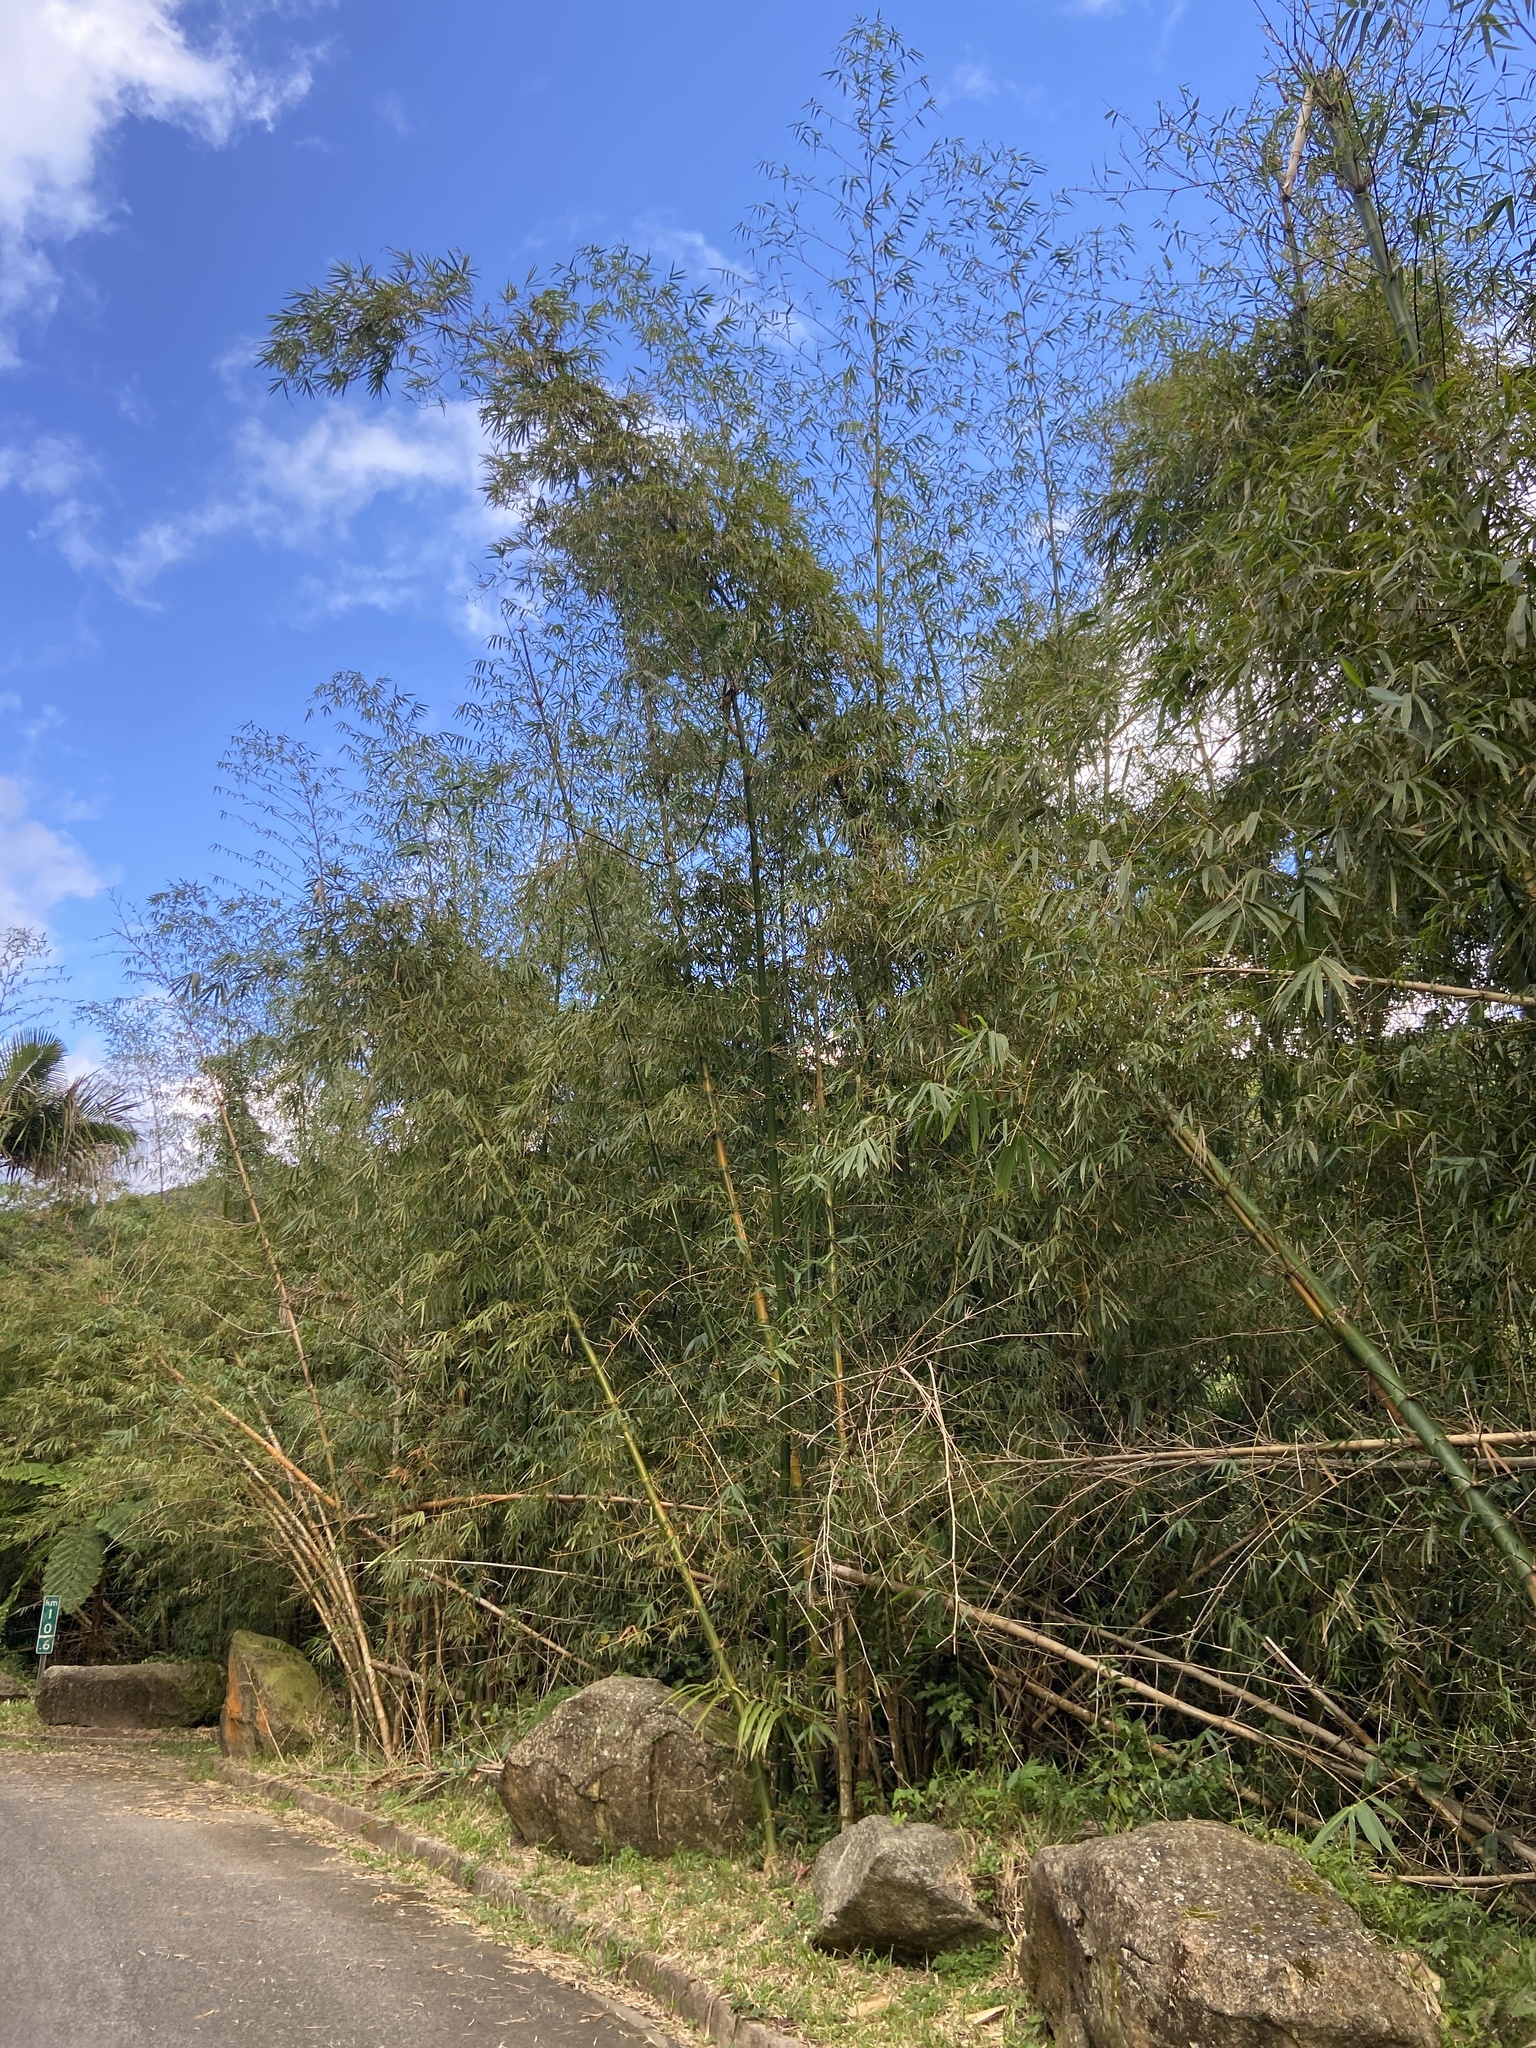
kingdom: Plantae
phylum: Tracheophyta
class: Liliopsida
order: Poales
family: Poaceae
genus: Bambusa
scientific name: Bambusa vulgaris
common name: Common bamboo
